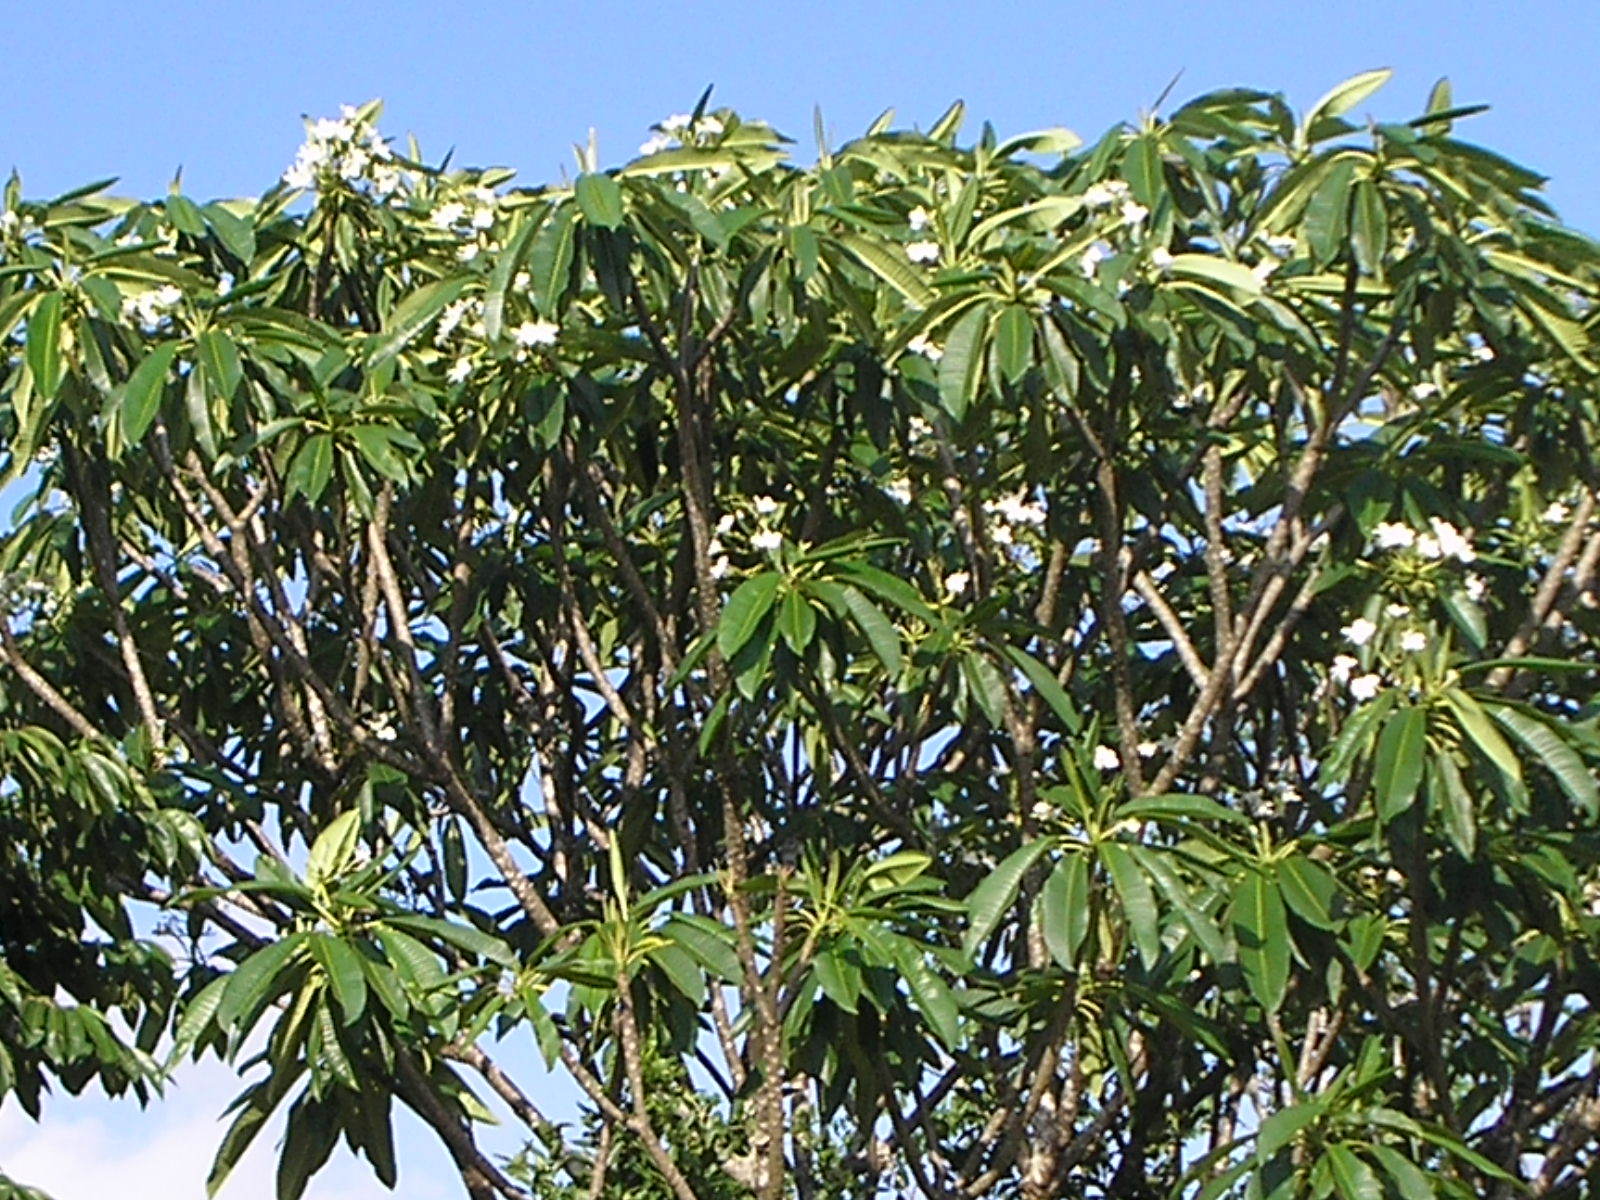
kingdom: Plantae
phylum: Tracheophyta
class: Magnoliopsida
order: Gentianales
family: Apocynaceae
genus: Plumeria
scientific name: Plumeria rubra
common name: Pagoda-tree
